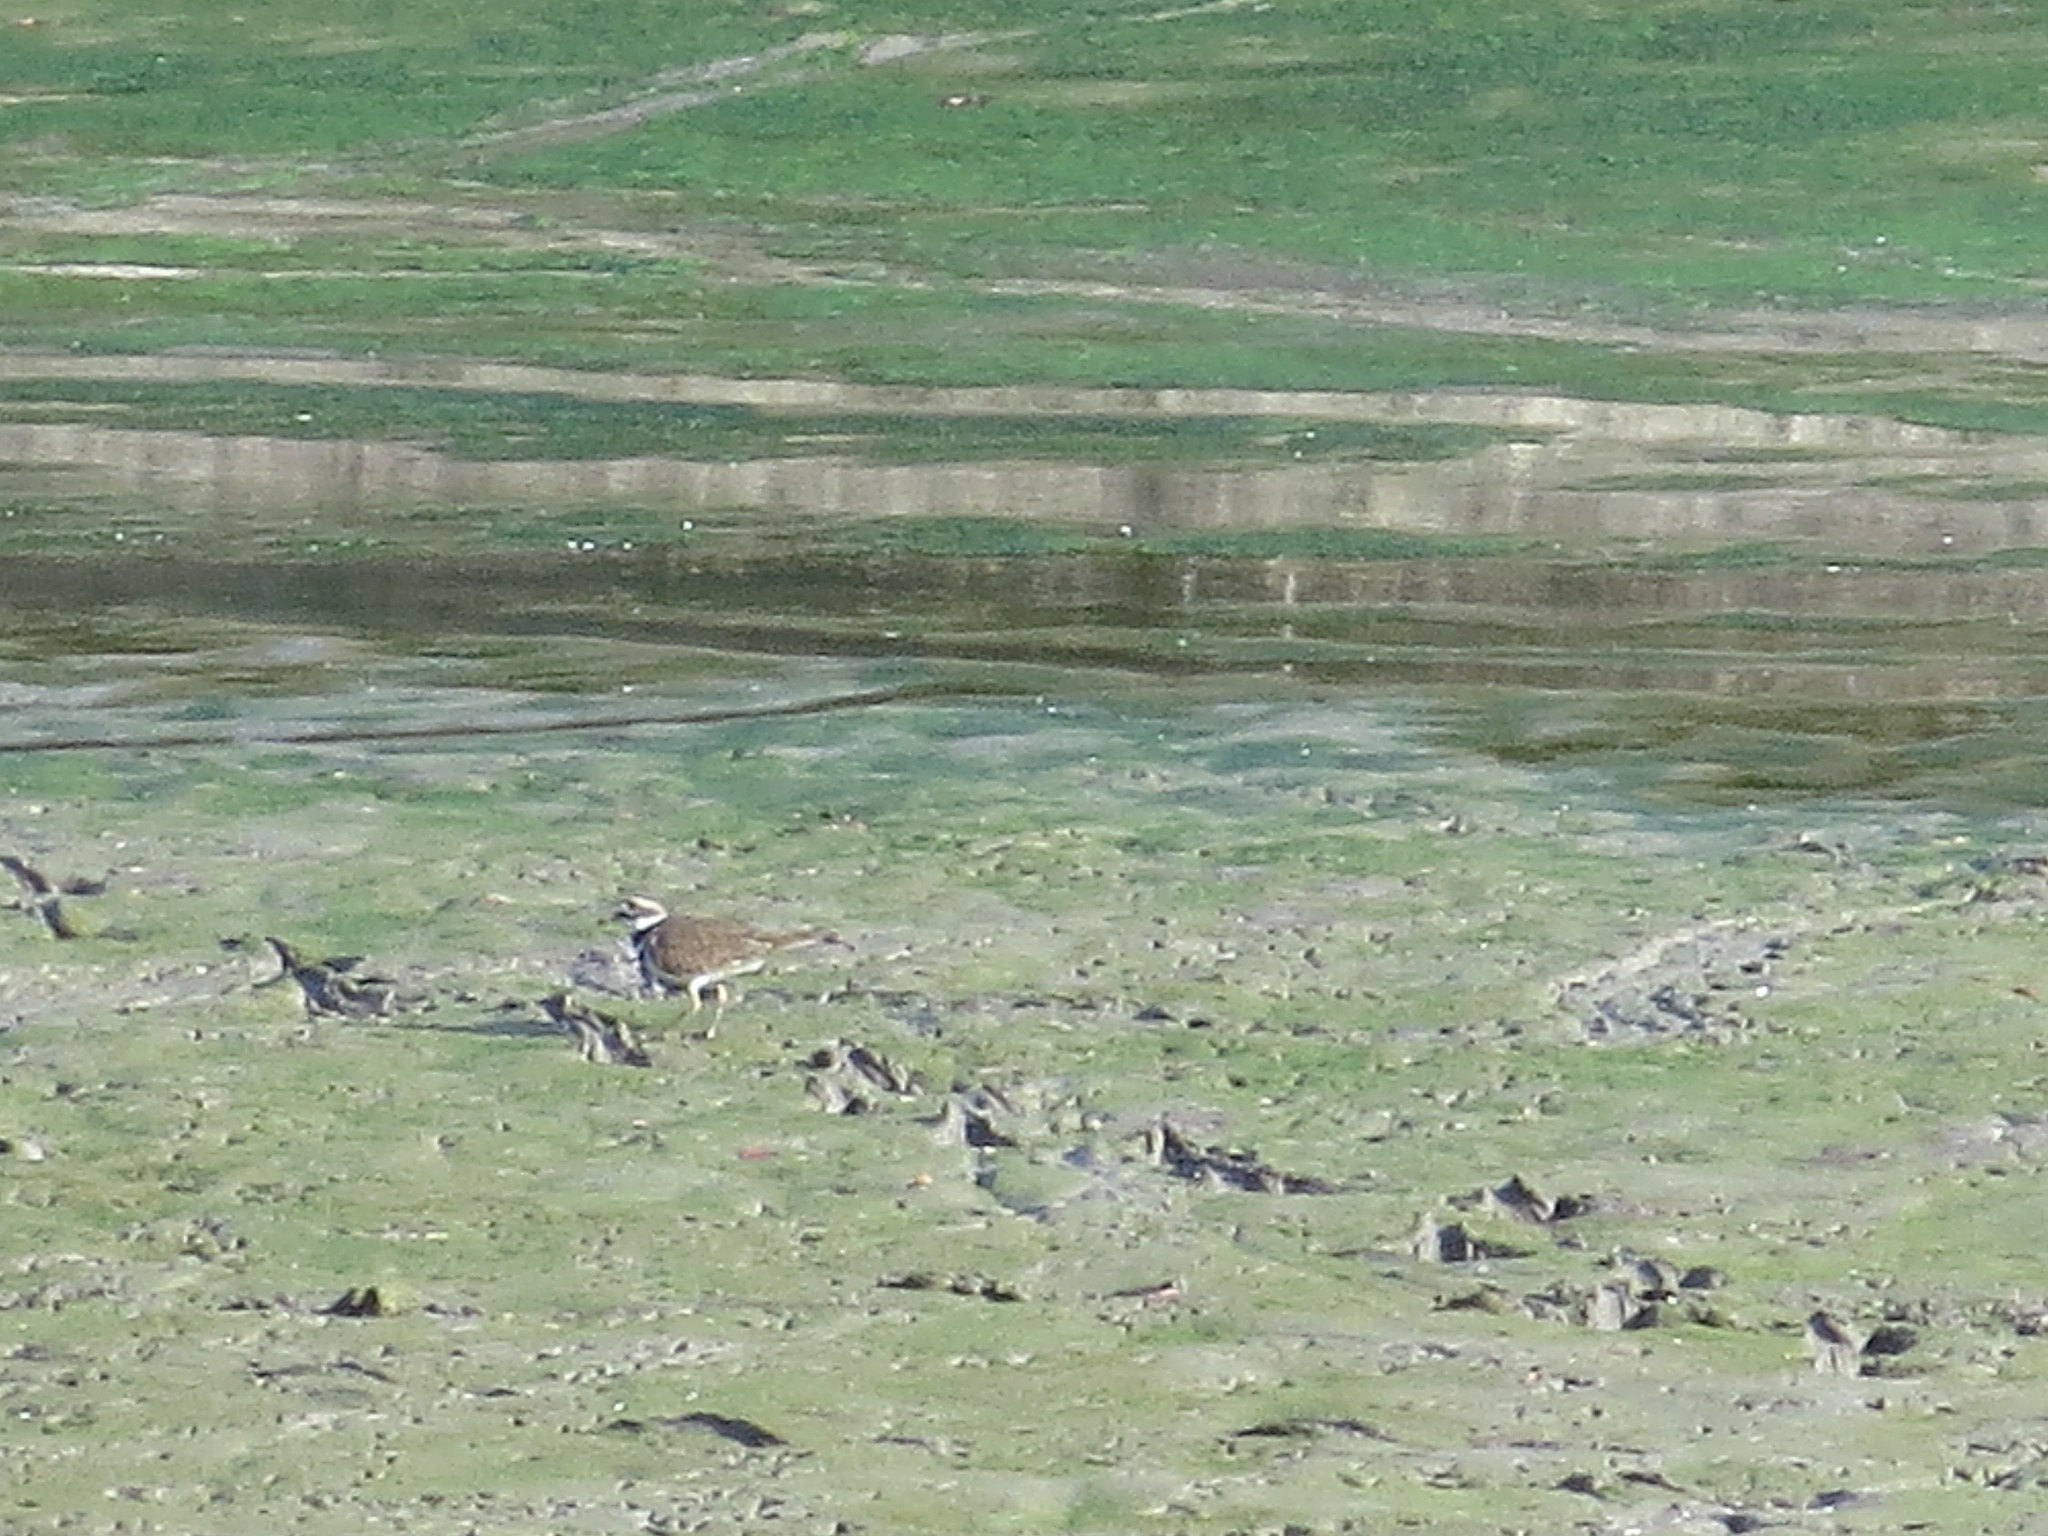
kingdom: Animalia
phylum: Chordata
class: Aves
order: Charadriiformes
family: Charadriidae
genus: Charadrius
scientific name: Charadrius vociferus
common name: Killdeer
